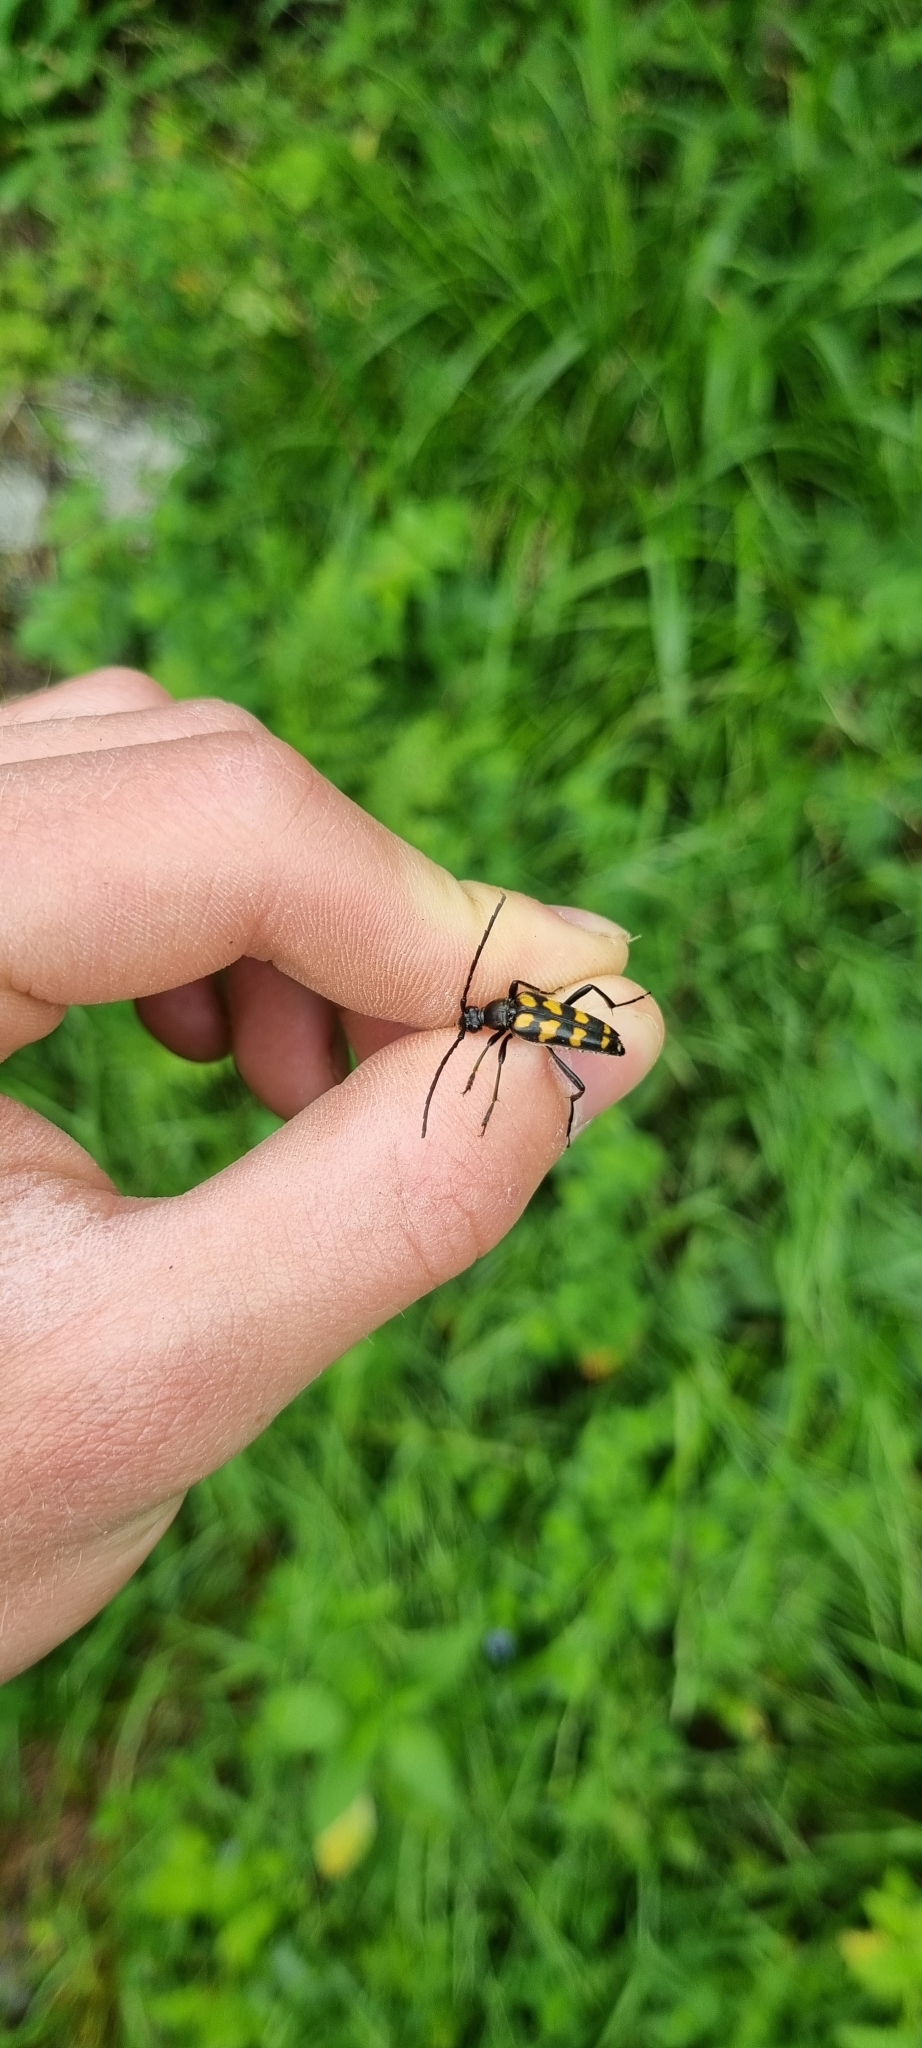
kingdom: Animalia
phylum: Arthropoda
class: Insecta
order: Coleoptera
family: Cerambycidae
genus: Leptura
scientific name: Leptura quadrifasciata
